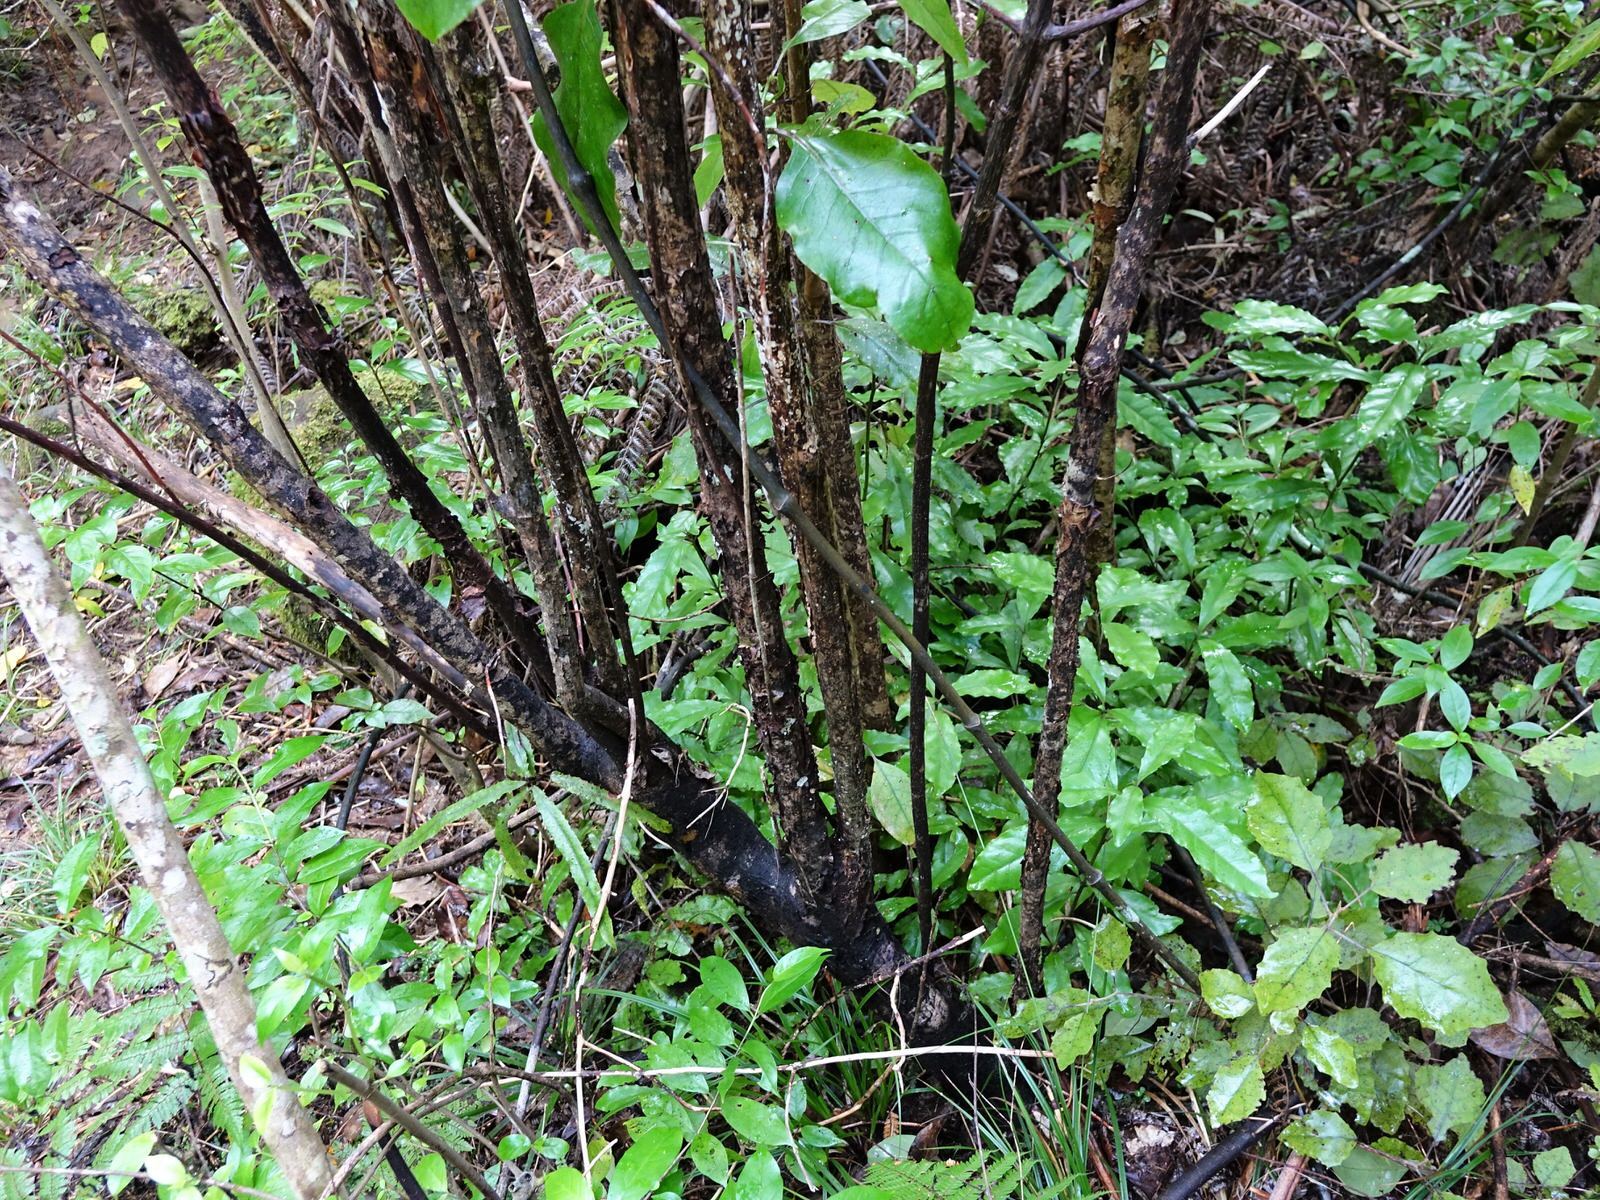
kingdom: Plantae
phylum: Tracheophyta
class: Magnoliopsida
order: Gentianales
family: Rubiaceae
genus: Coprosma
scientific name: Coprosma autumnalis
